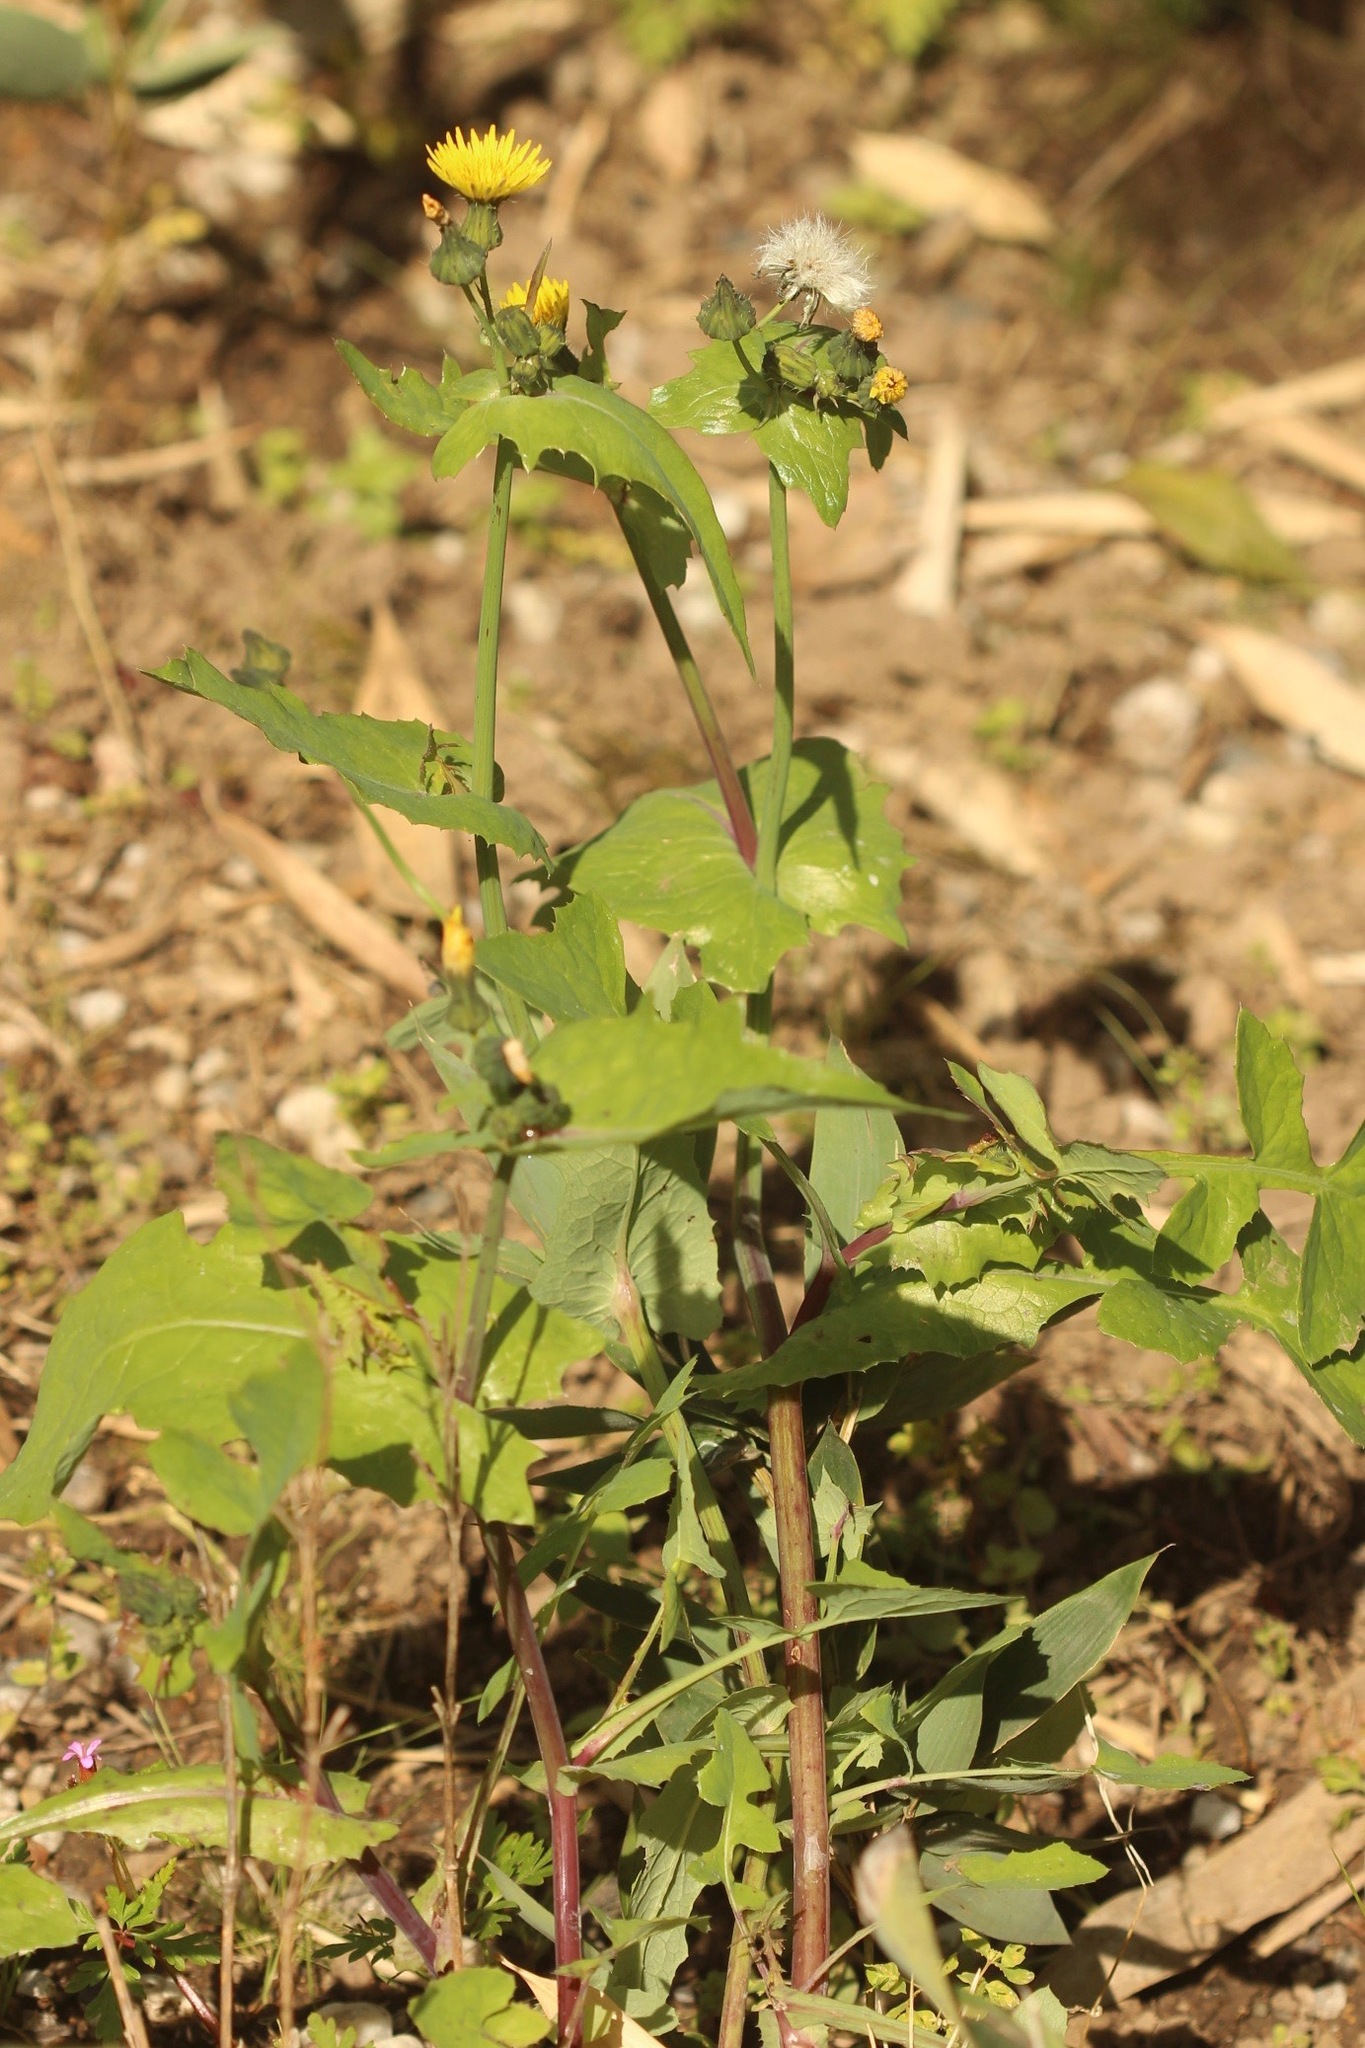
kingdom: Plantae
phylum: Tracheophyta
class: Magnoliopsida
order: Asterales
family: Asteraceae
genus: Sonchus
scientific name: Sonchus oleraceus
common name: Common sowthistle
